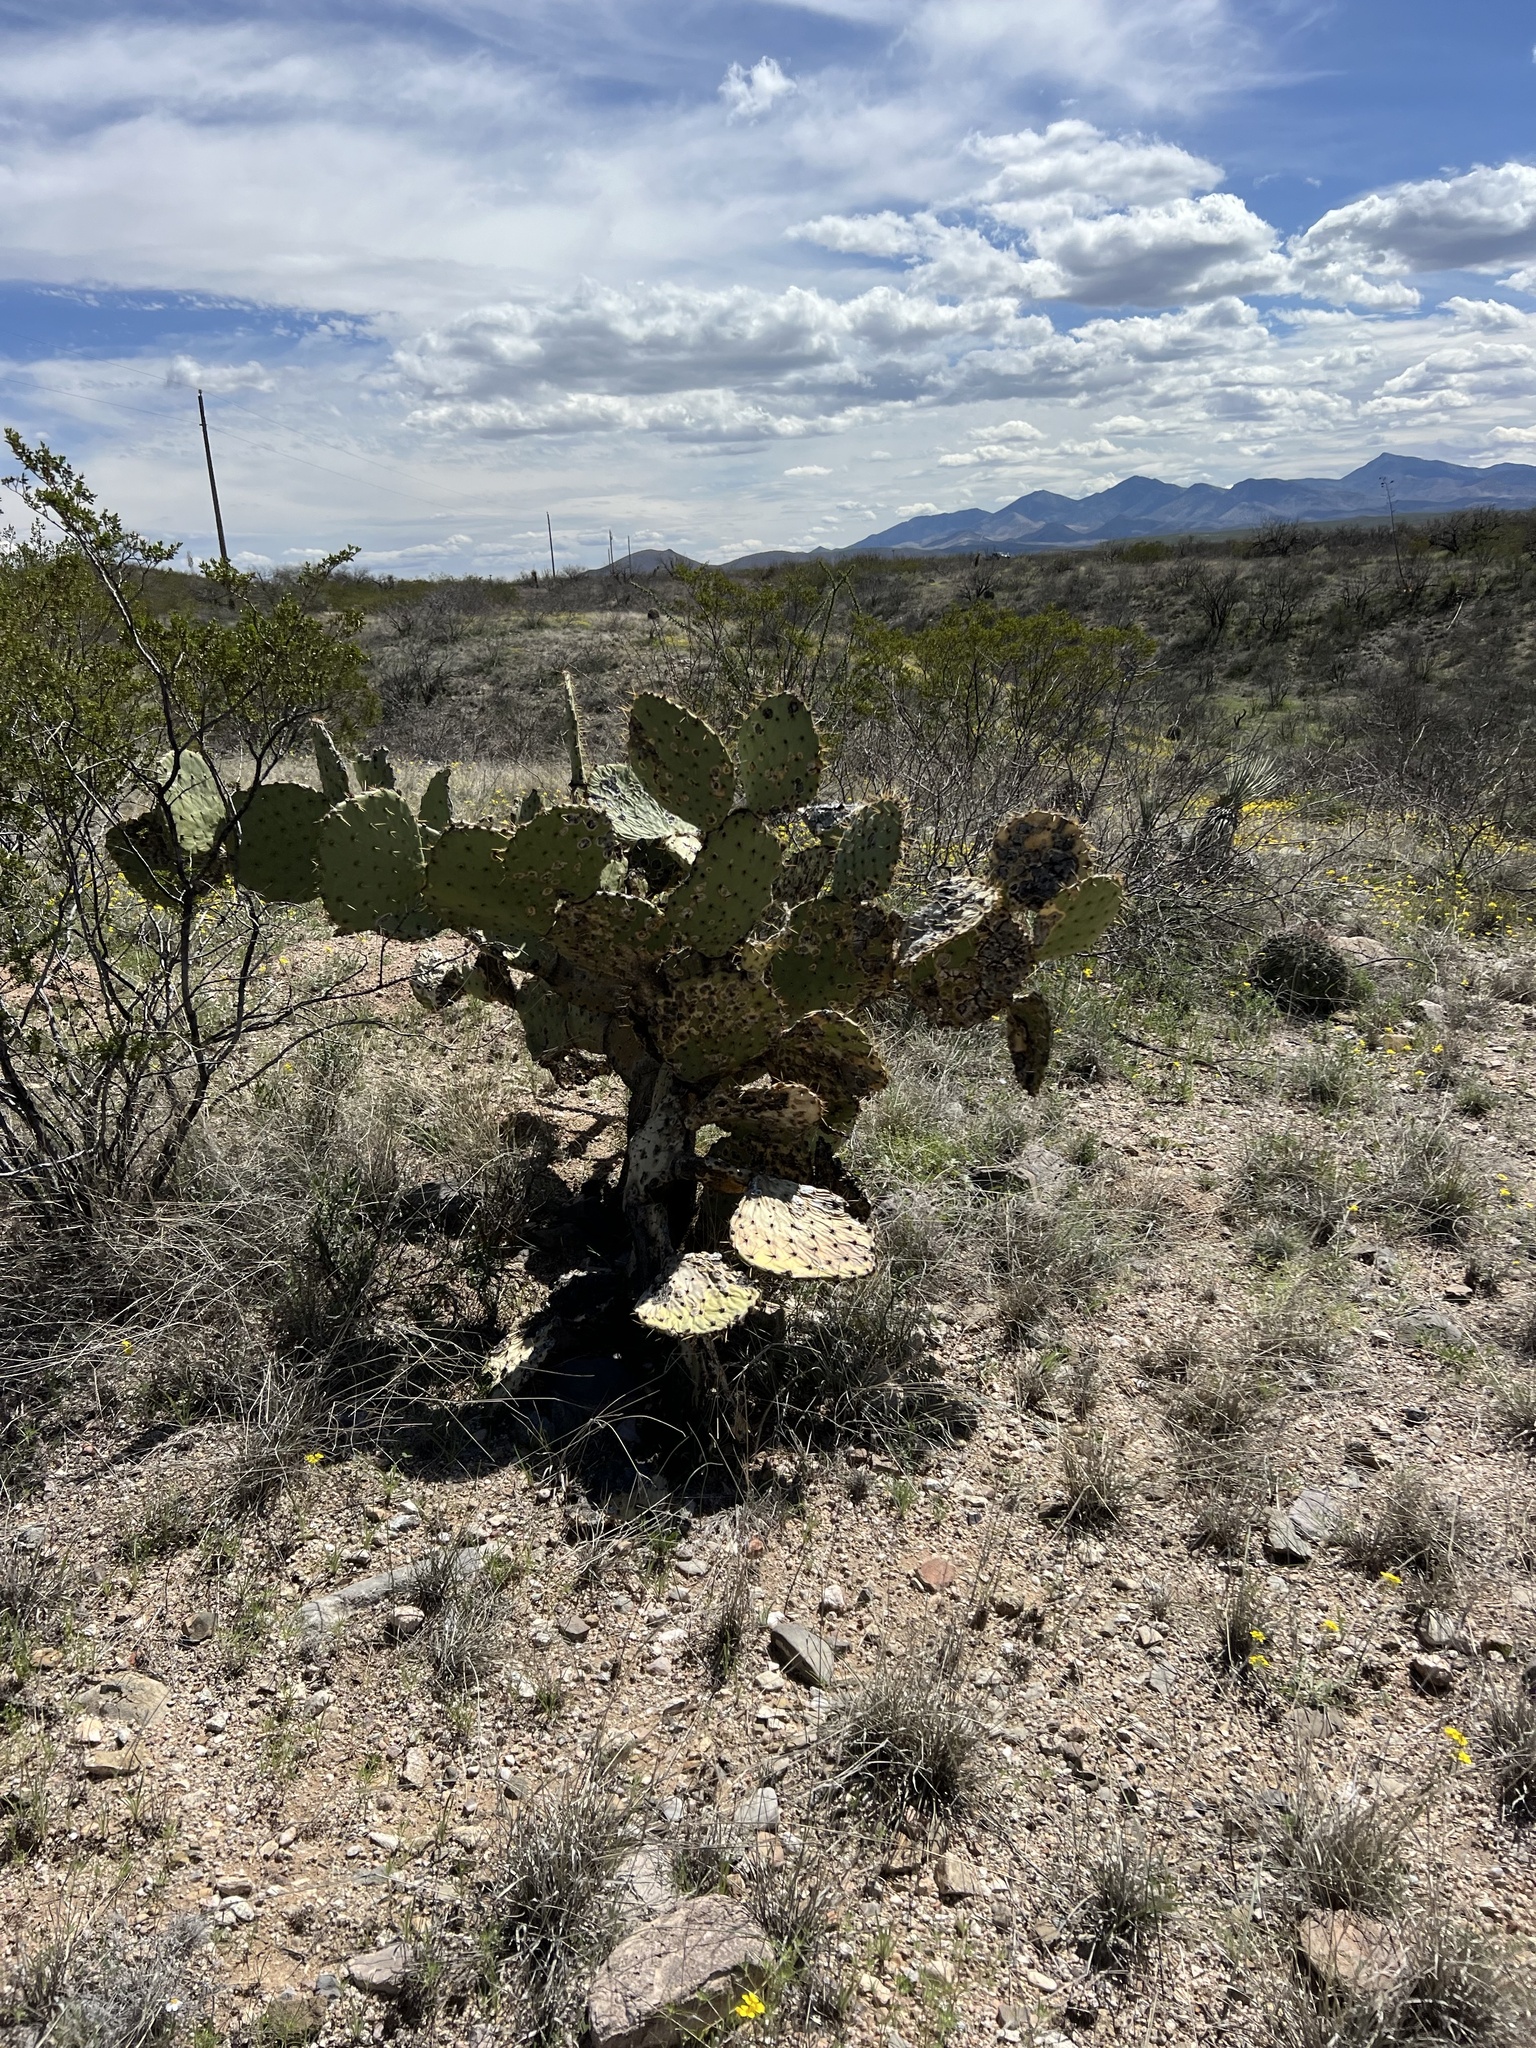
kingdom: Plantae
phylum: Tracheophyta
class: Magnoliopsida
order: Caryophyllales
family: Cactaceae
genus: Opuntia
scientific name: Opuntia engelmannii
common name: Cactus-apple
